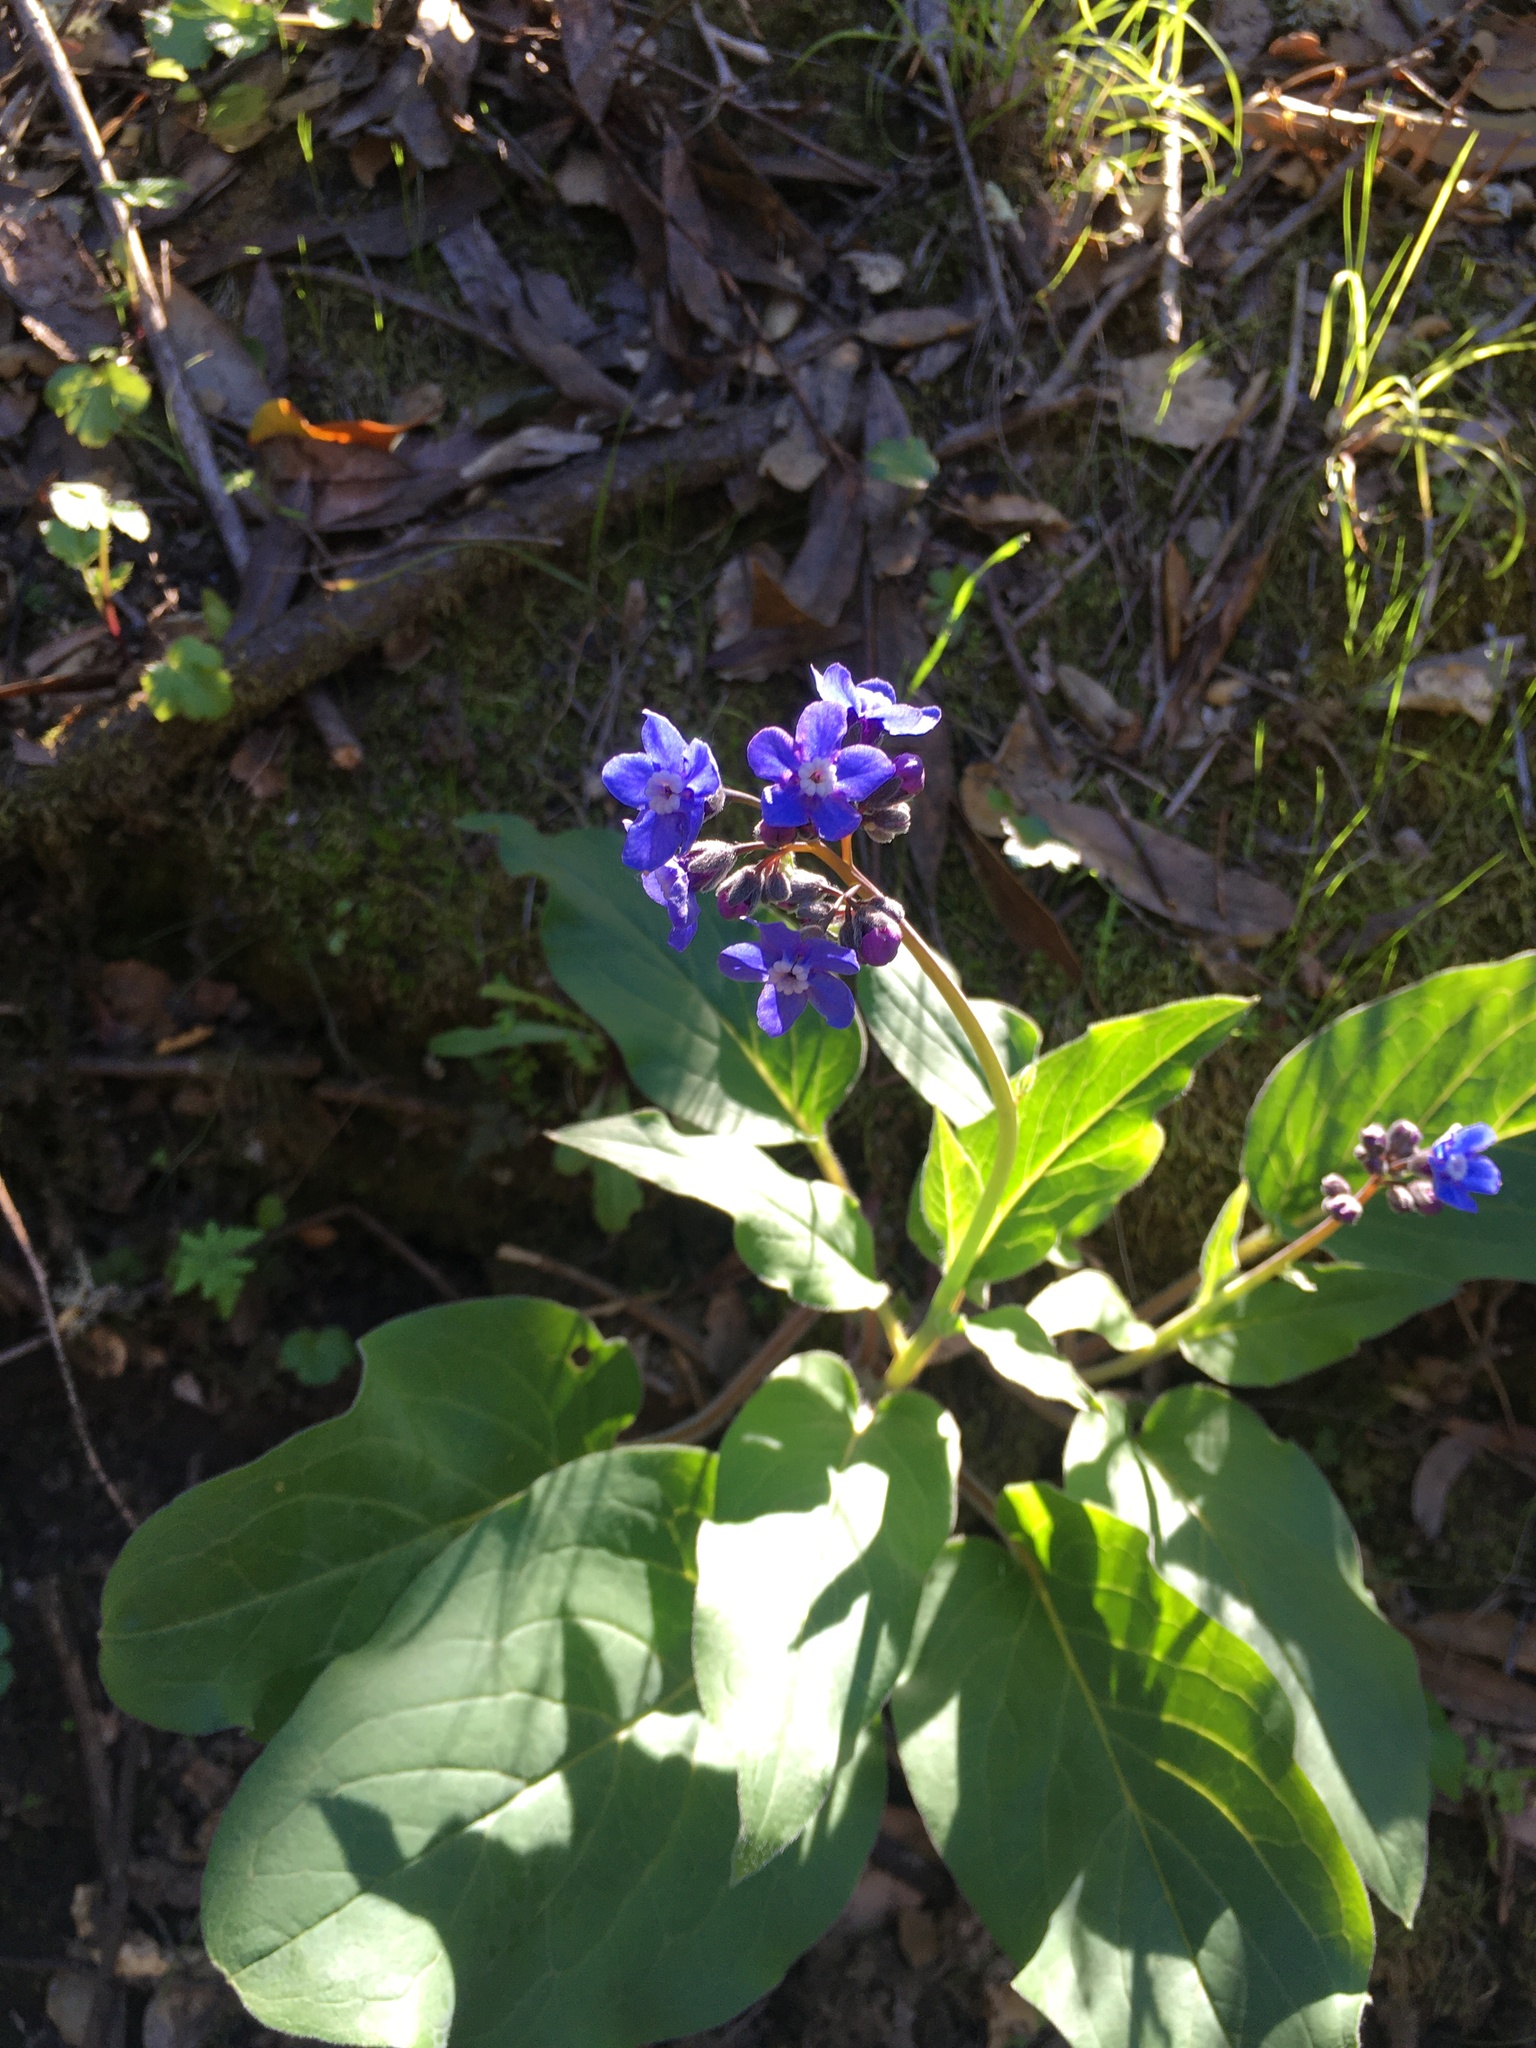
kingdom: Plantae
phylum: Tracheophyta
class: Magnoliopsida
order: Boraginales
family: Boraginaceae
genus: Adelinia
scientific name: Adelinia grande
